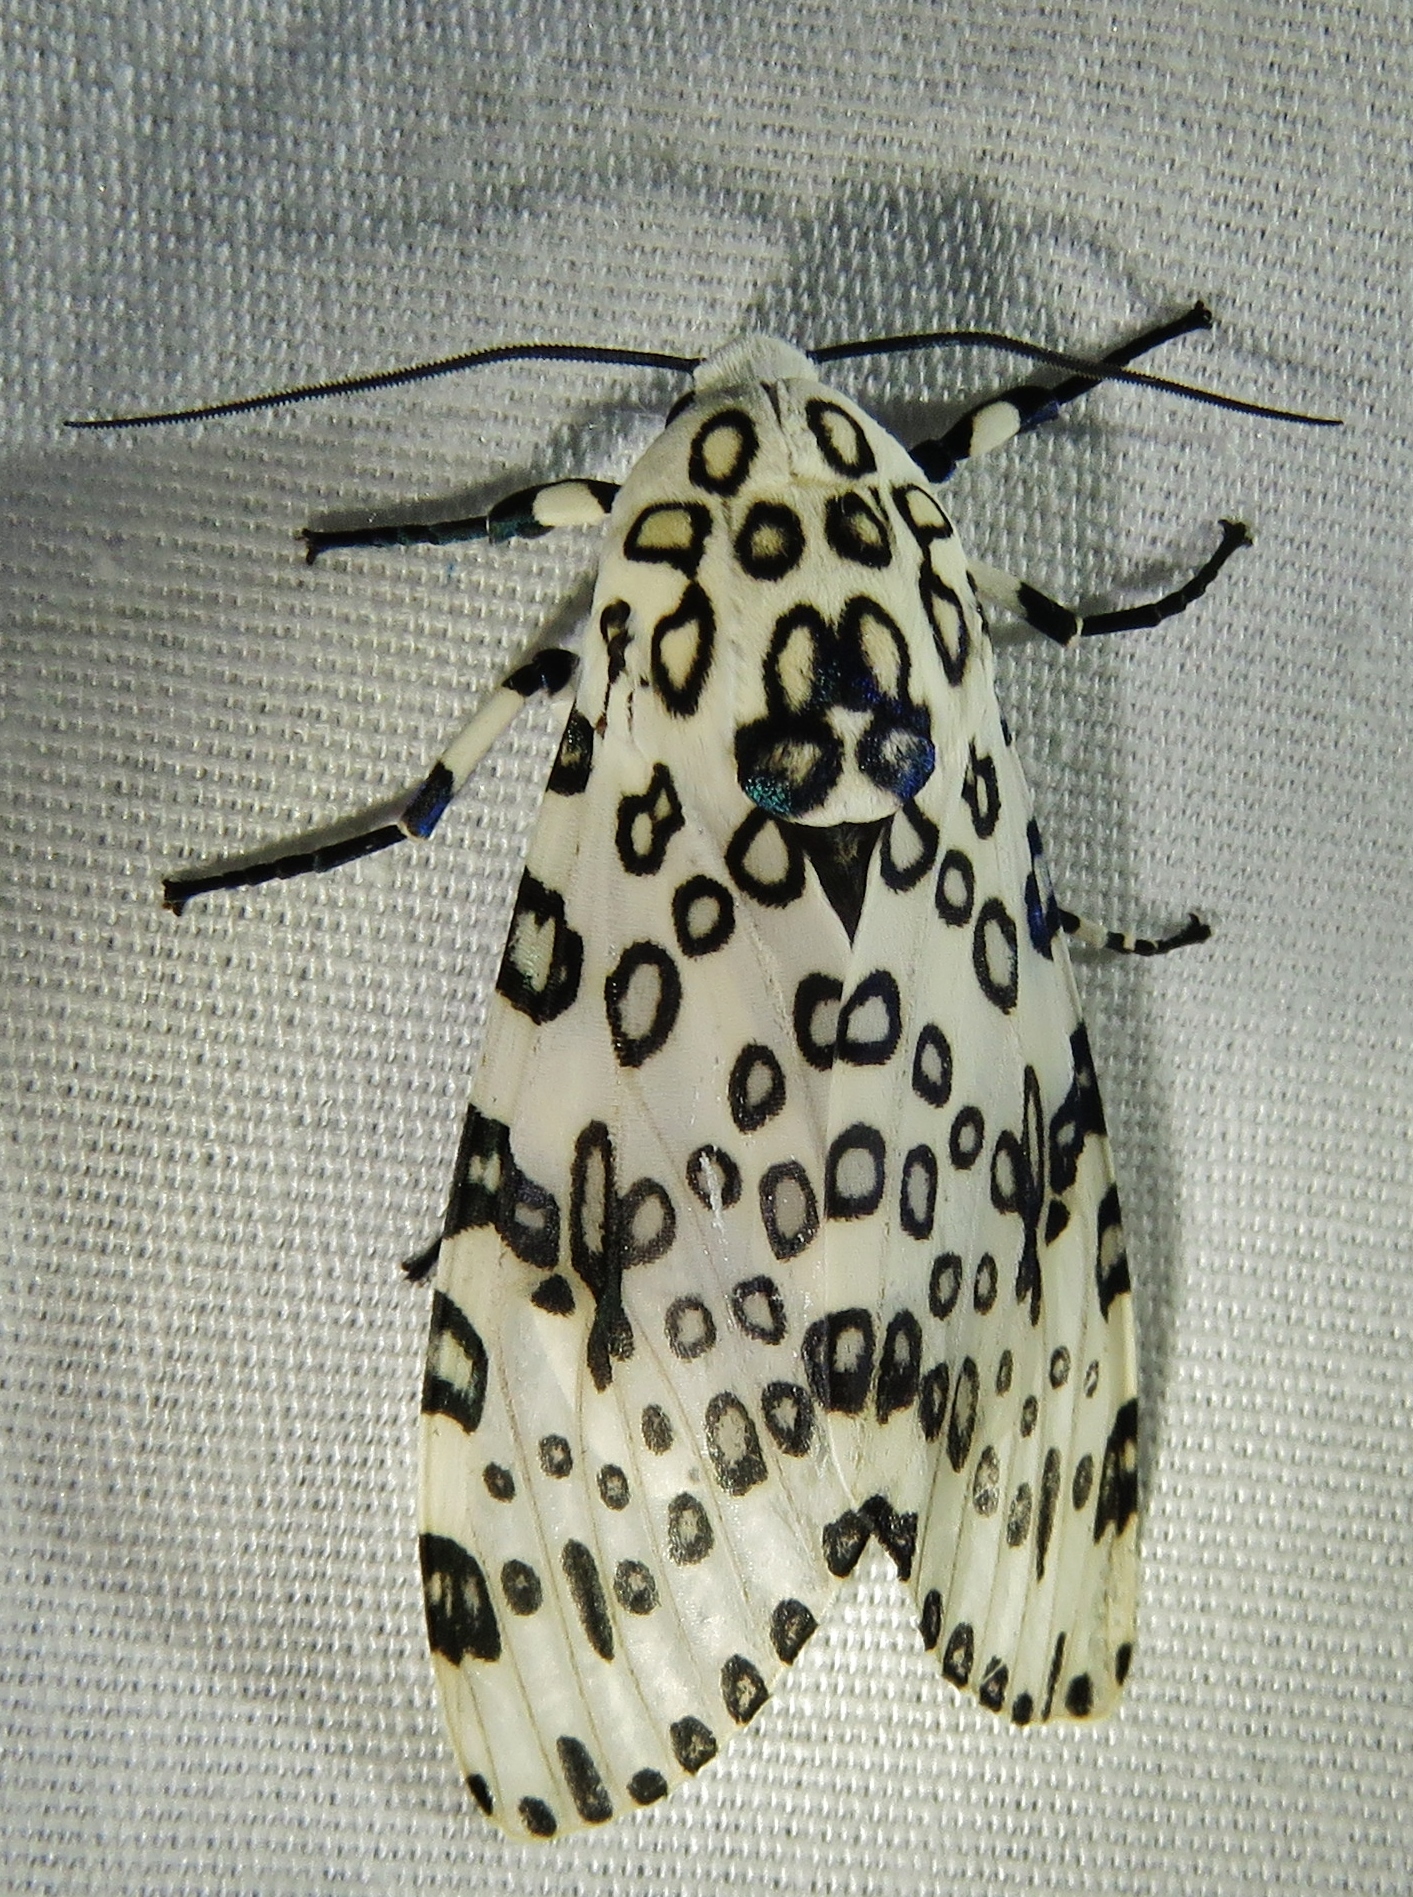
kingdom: Animalia
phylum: Arthropoda
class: Insecta
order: Lepidoptera
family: Erebidae
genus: Hypercompe
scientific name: Hypercompe scribonia
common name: Giant leopard moth
